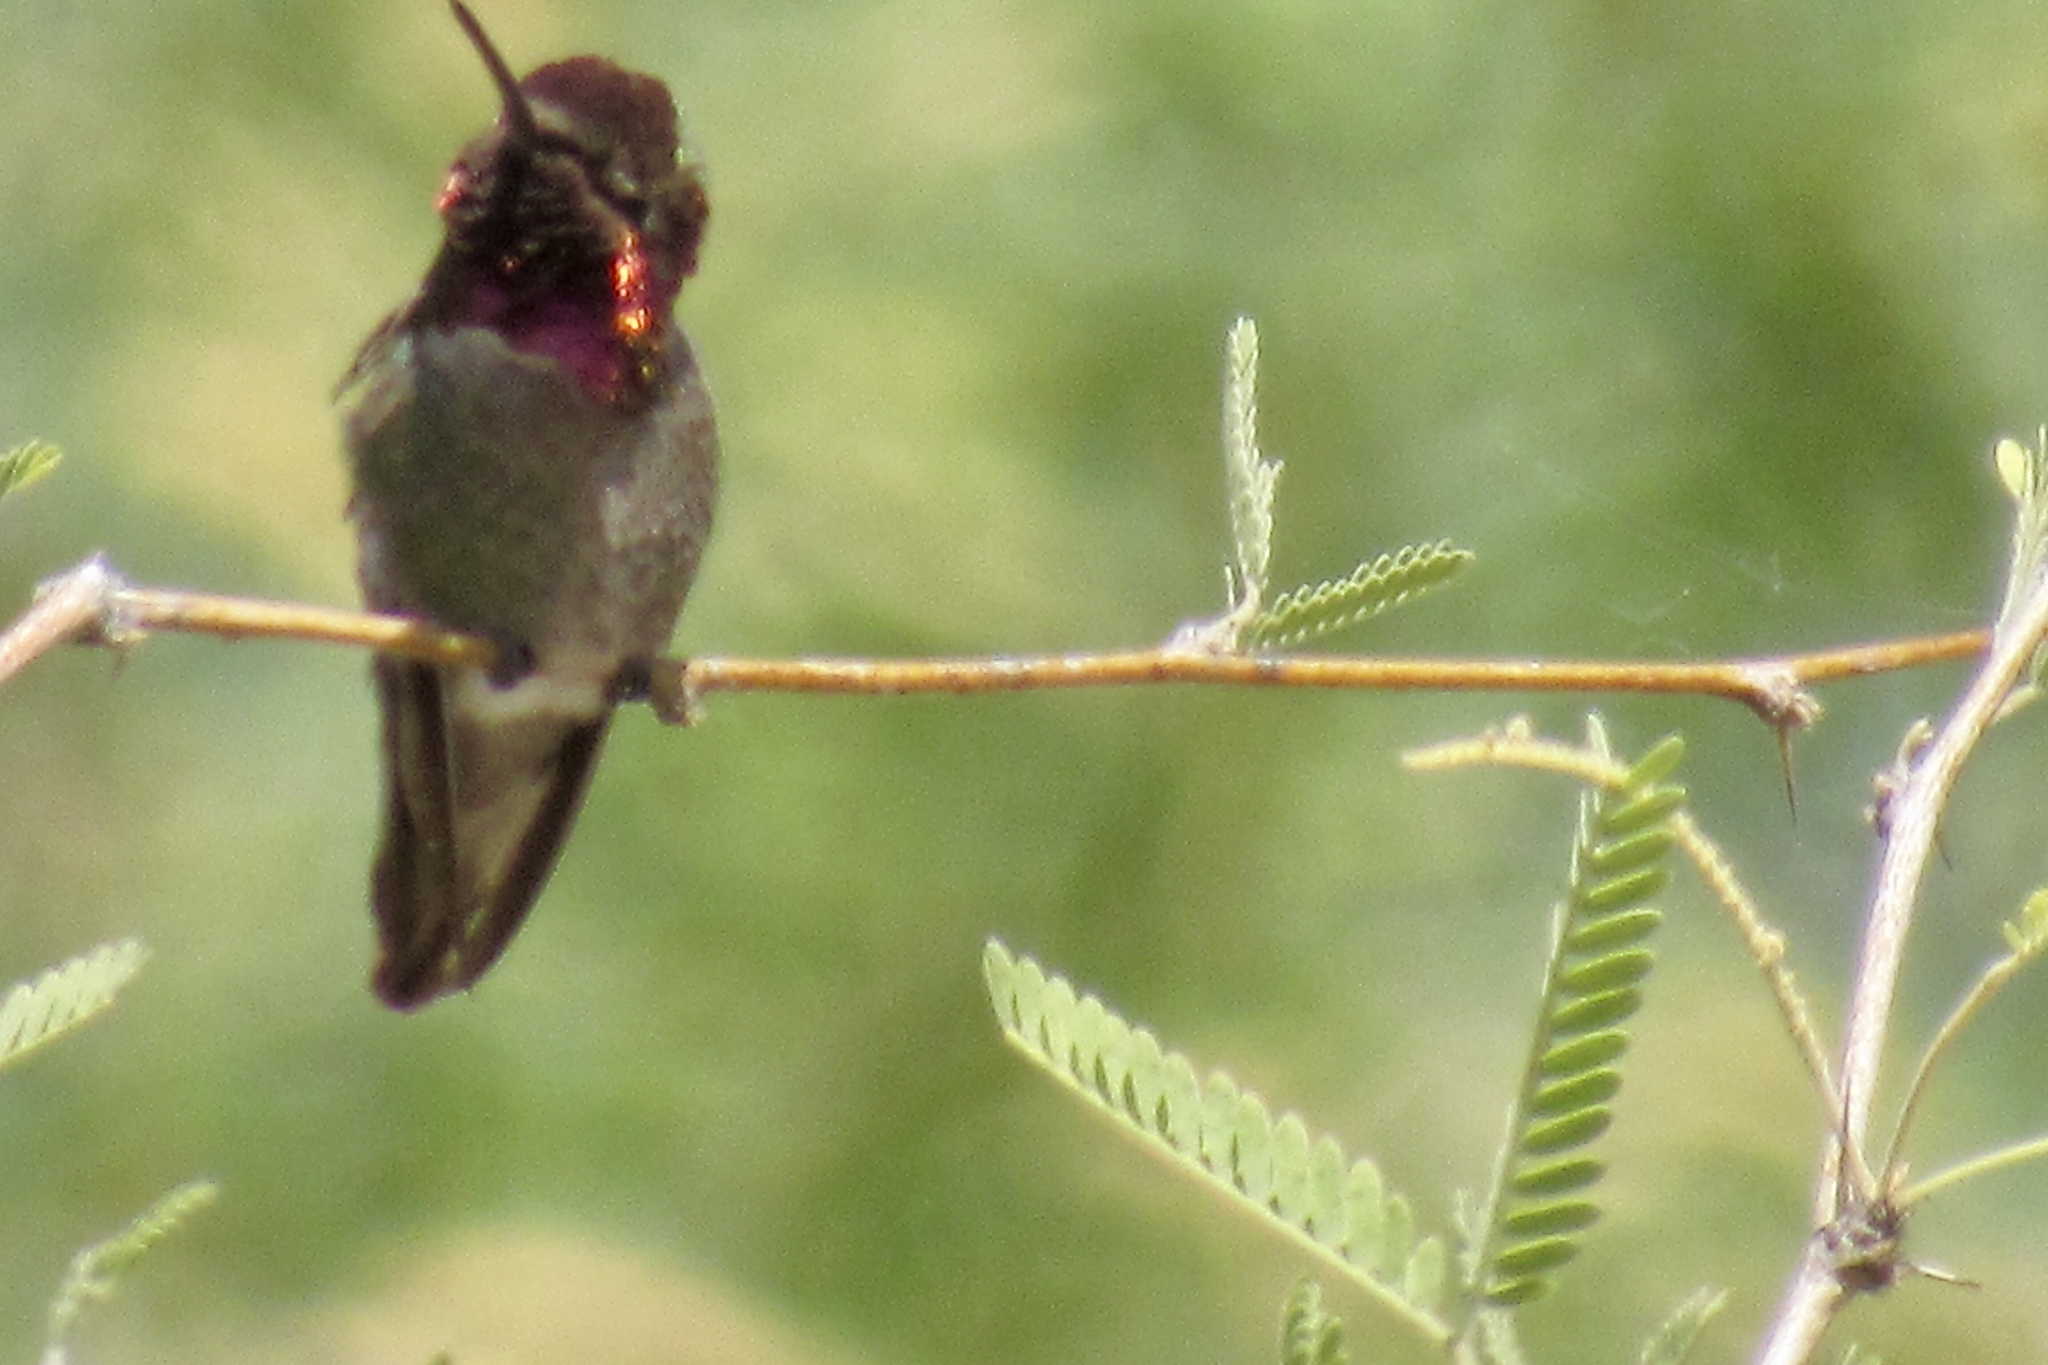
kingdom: Animalia
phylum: Chordata
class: Aves
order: Apodiformes
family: Trochilidae
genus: Calypte
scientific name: Calypte anna
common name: Anna's hummingbird
